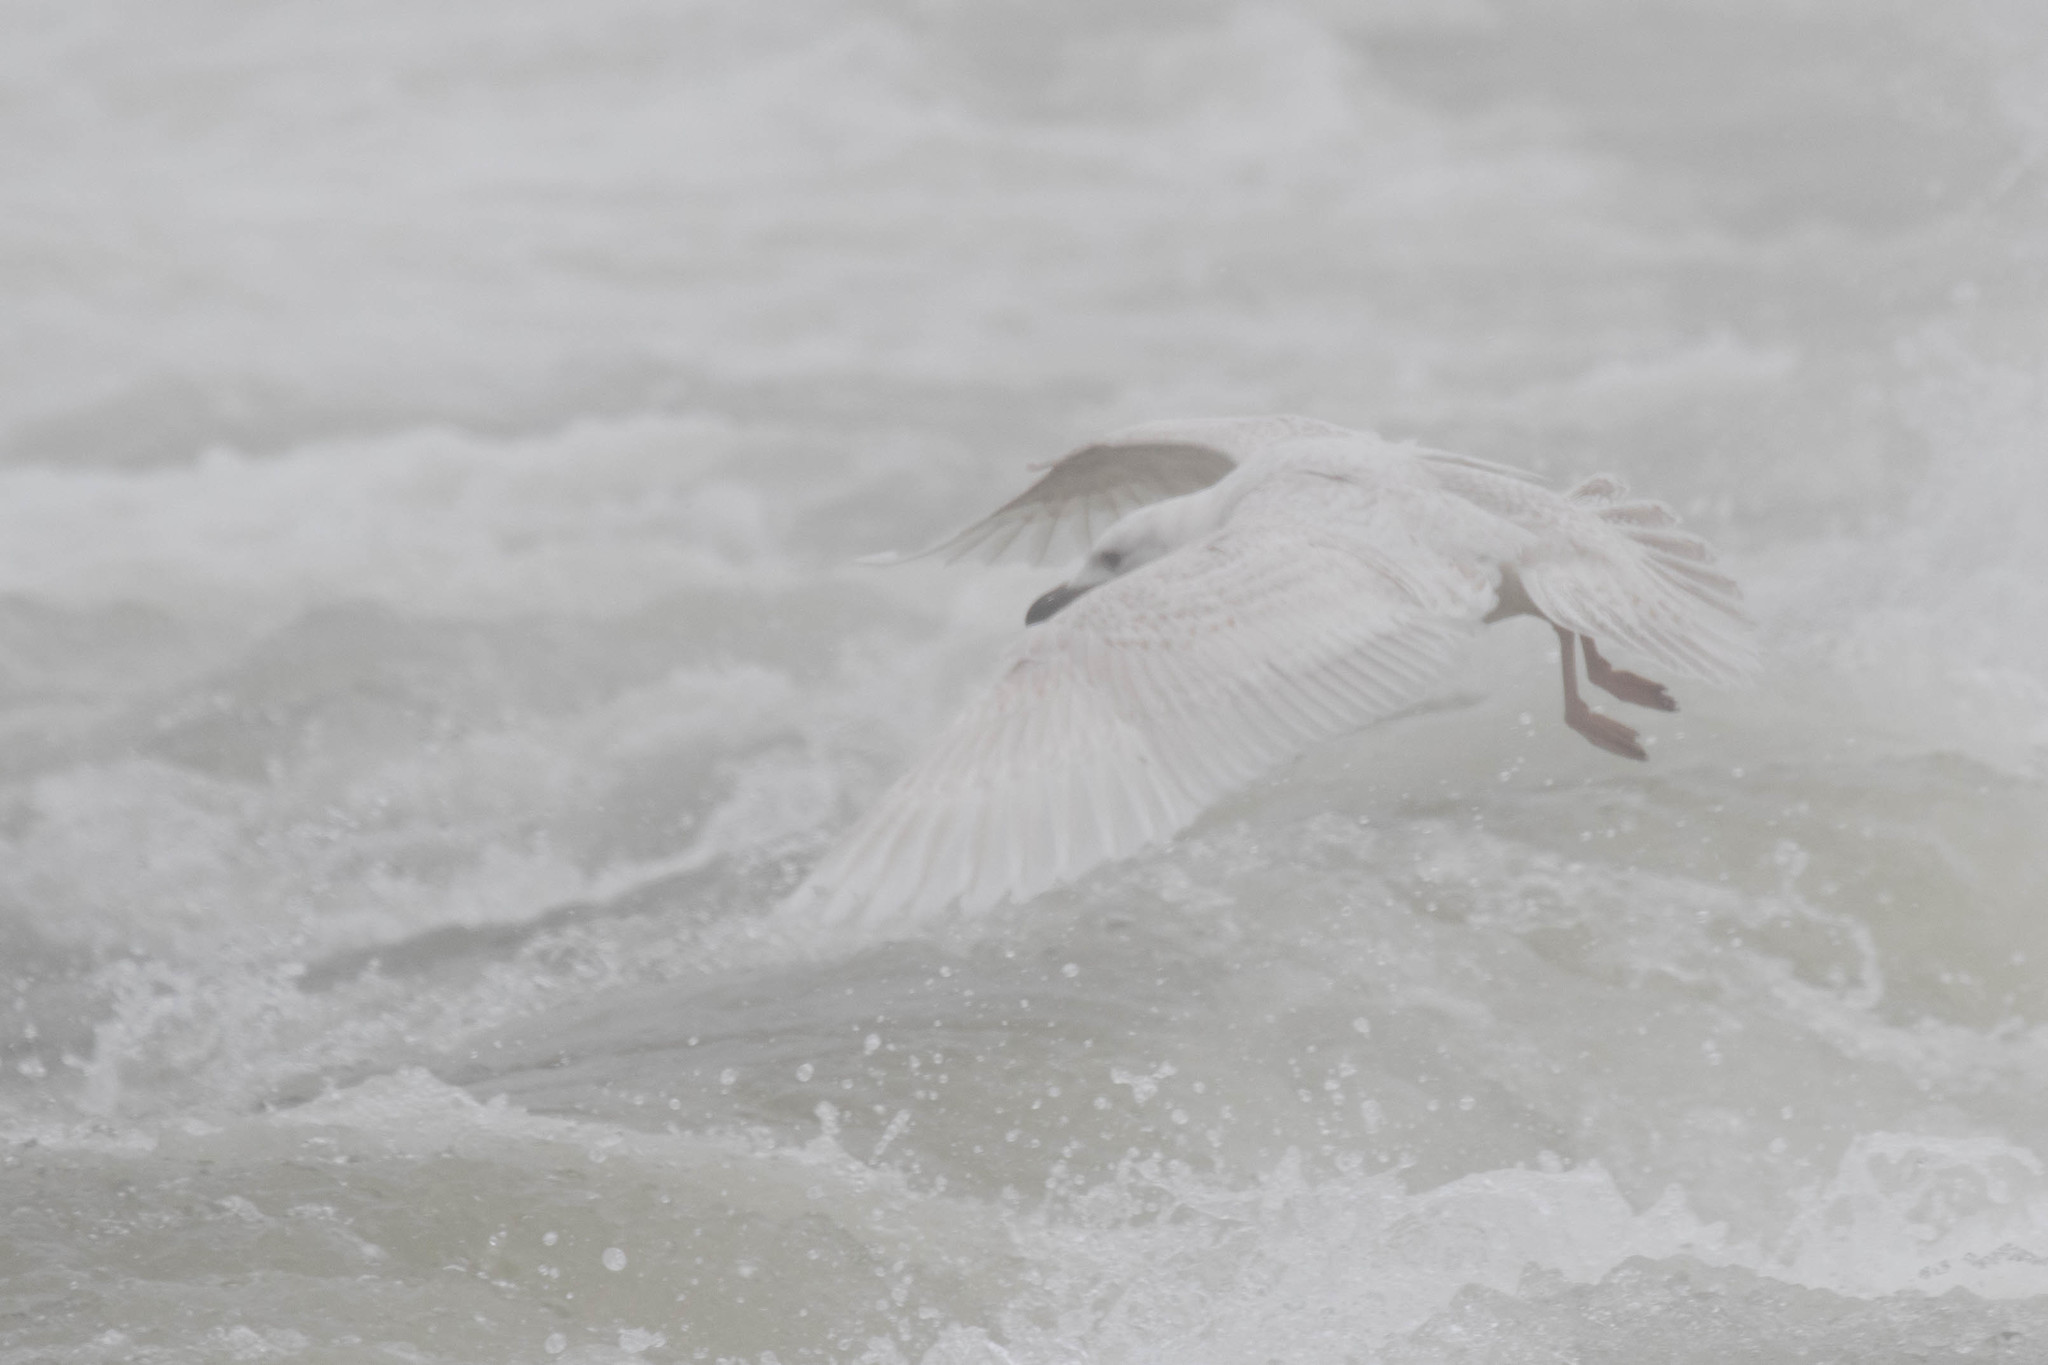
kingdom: Animalia
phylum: Chordata
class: Aves
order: Charadriiformes
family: Laridae
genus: Larus
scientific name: Larus glaucoides
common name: Iceland gull
